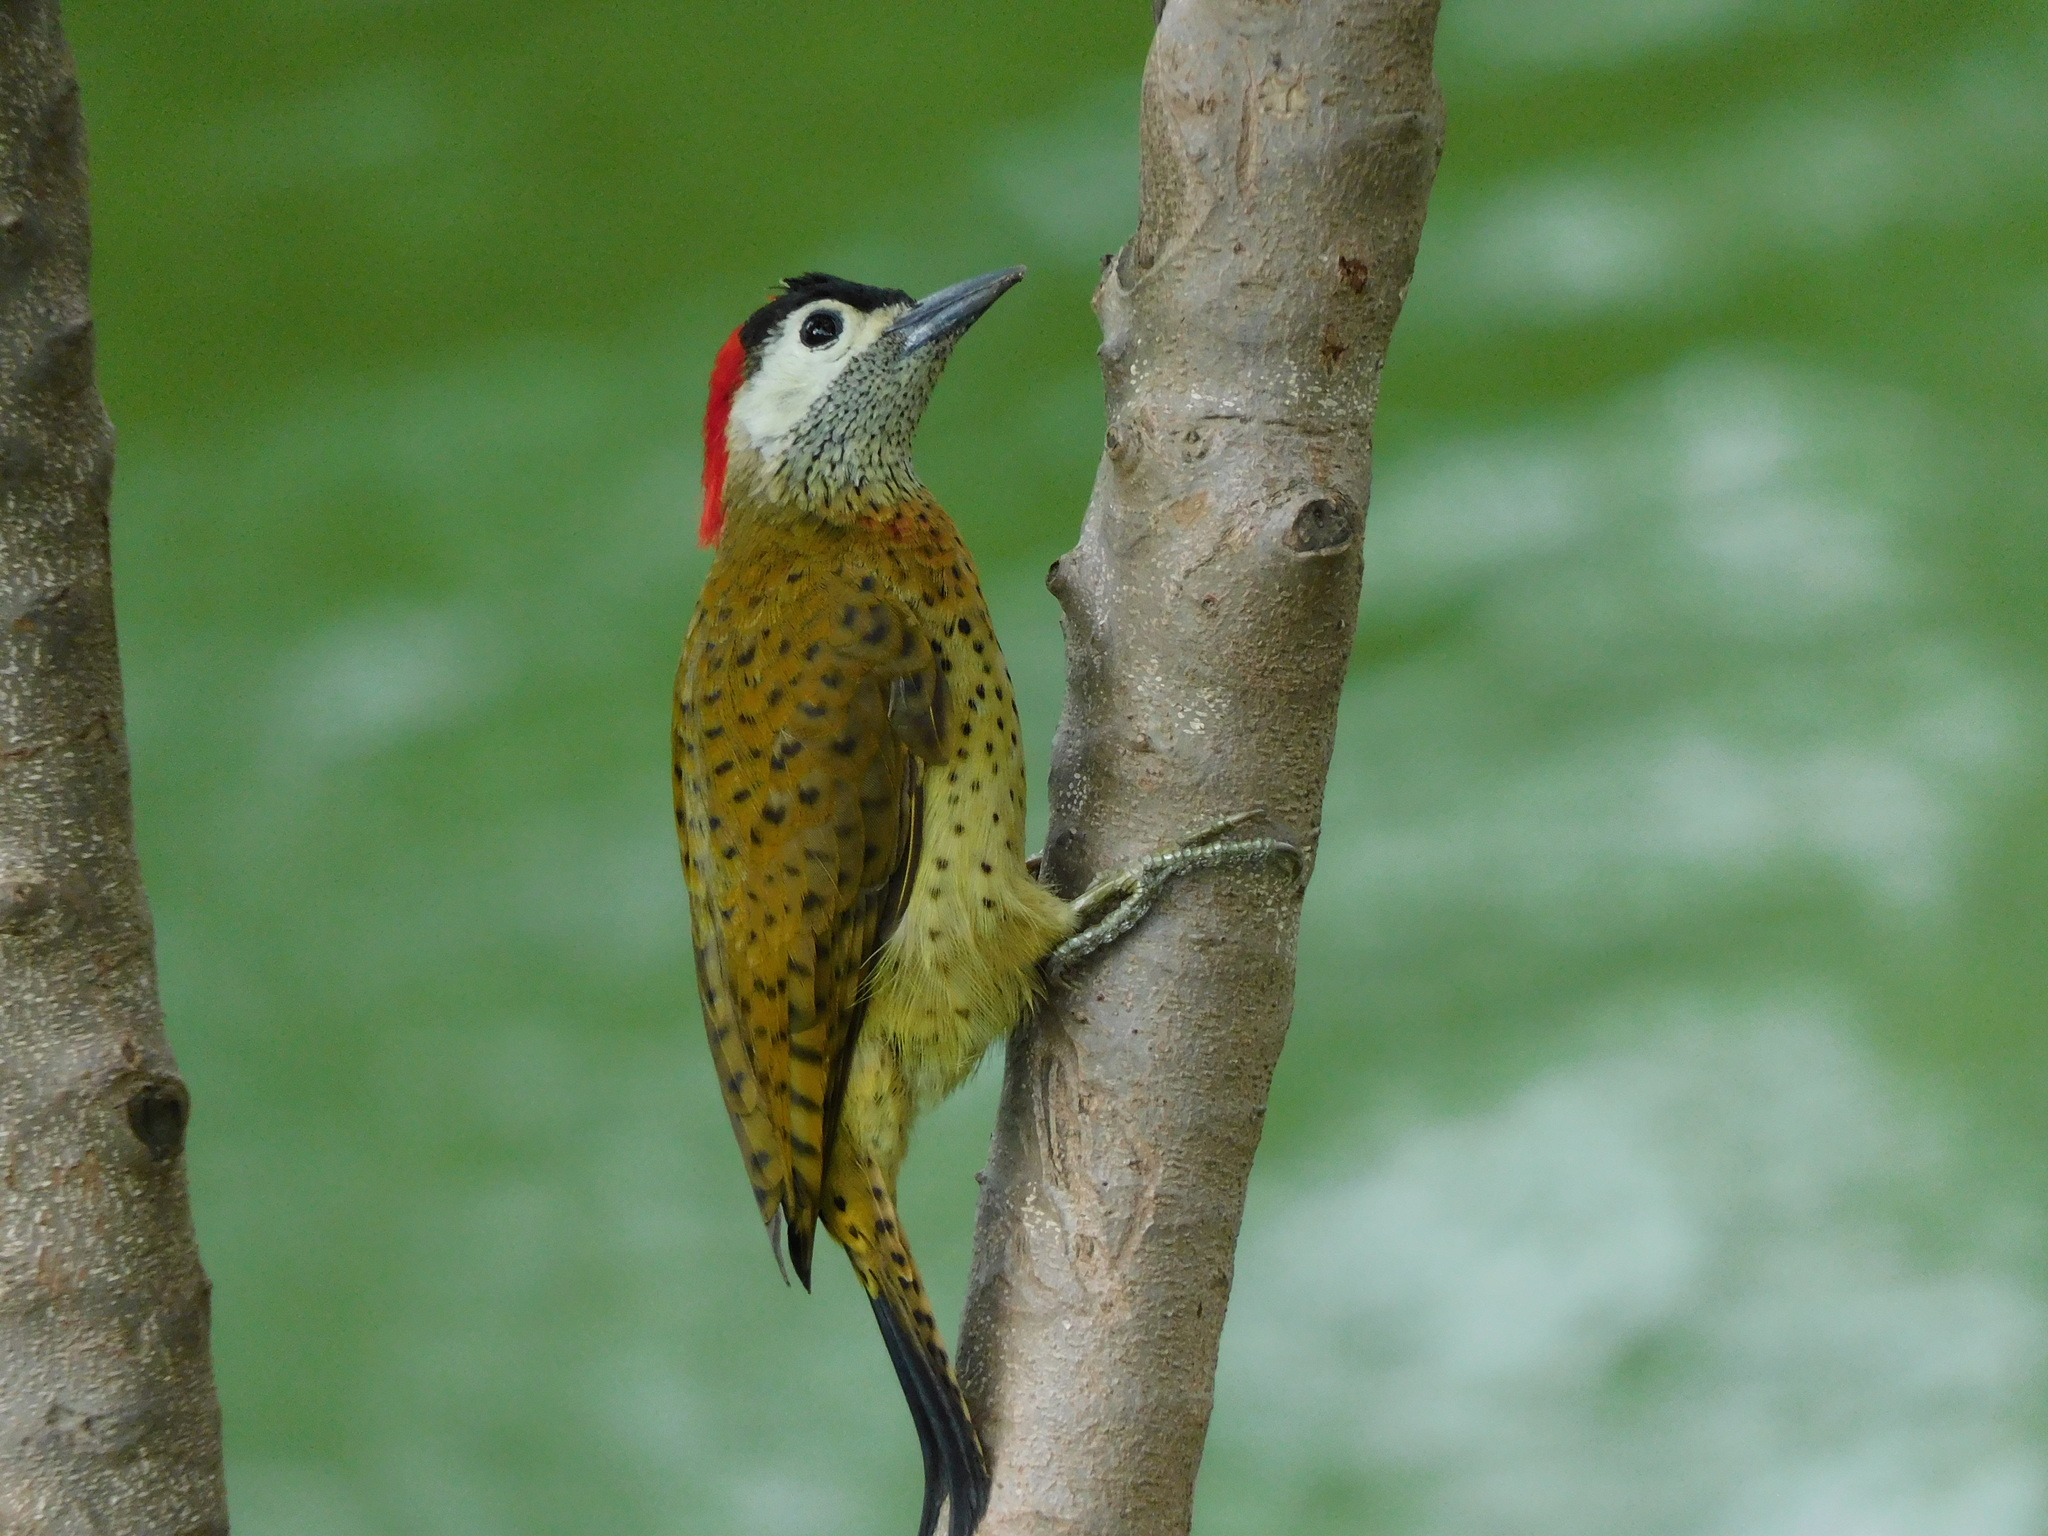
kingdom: Animalia
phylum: Chordata
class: Aves
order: Piciformes
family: Picidae
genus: Colaptes
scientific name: Colaptes punctigula
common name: Spot-breasted woodpecker
